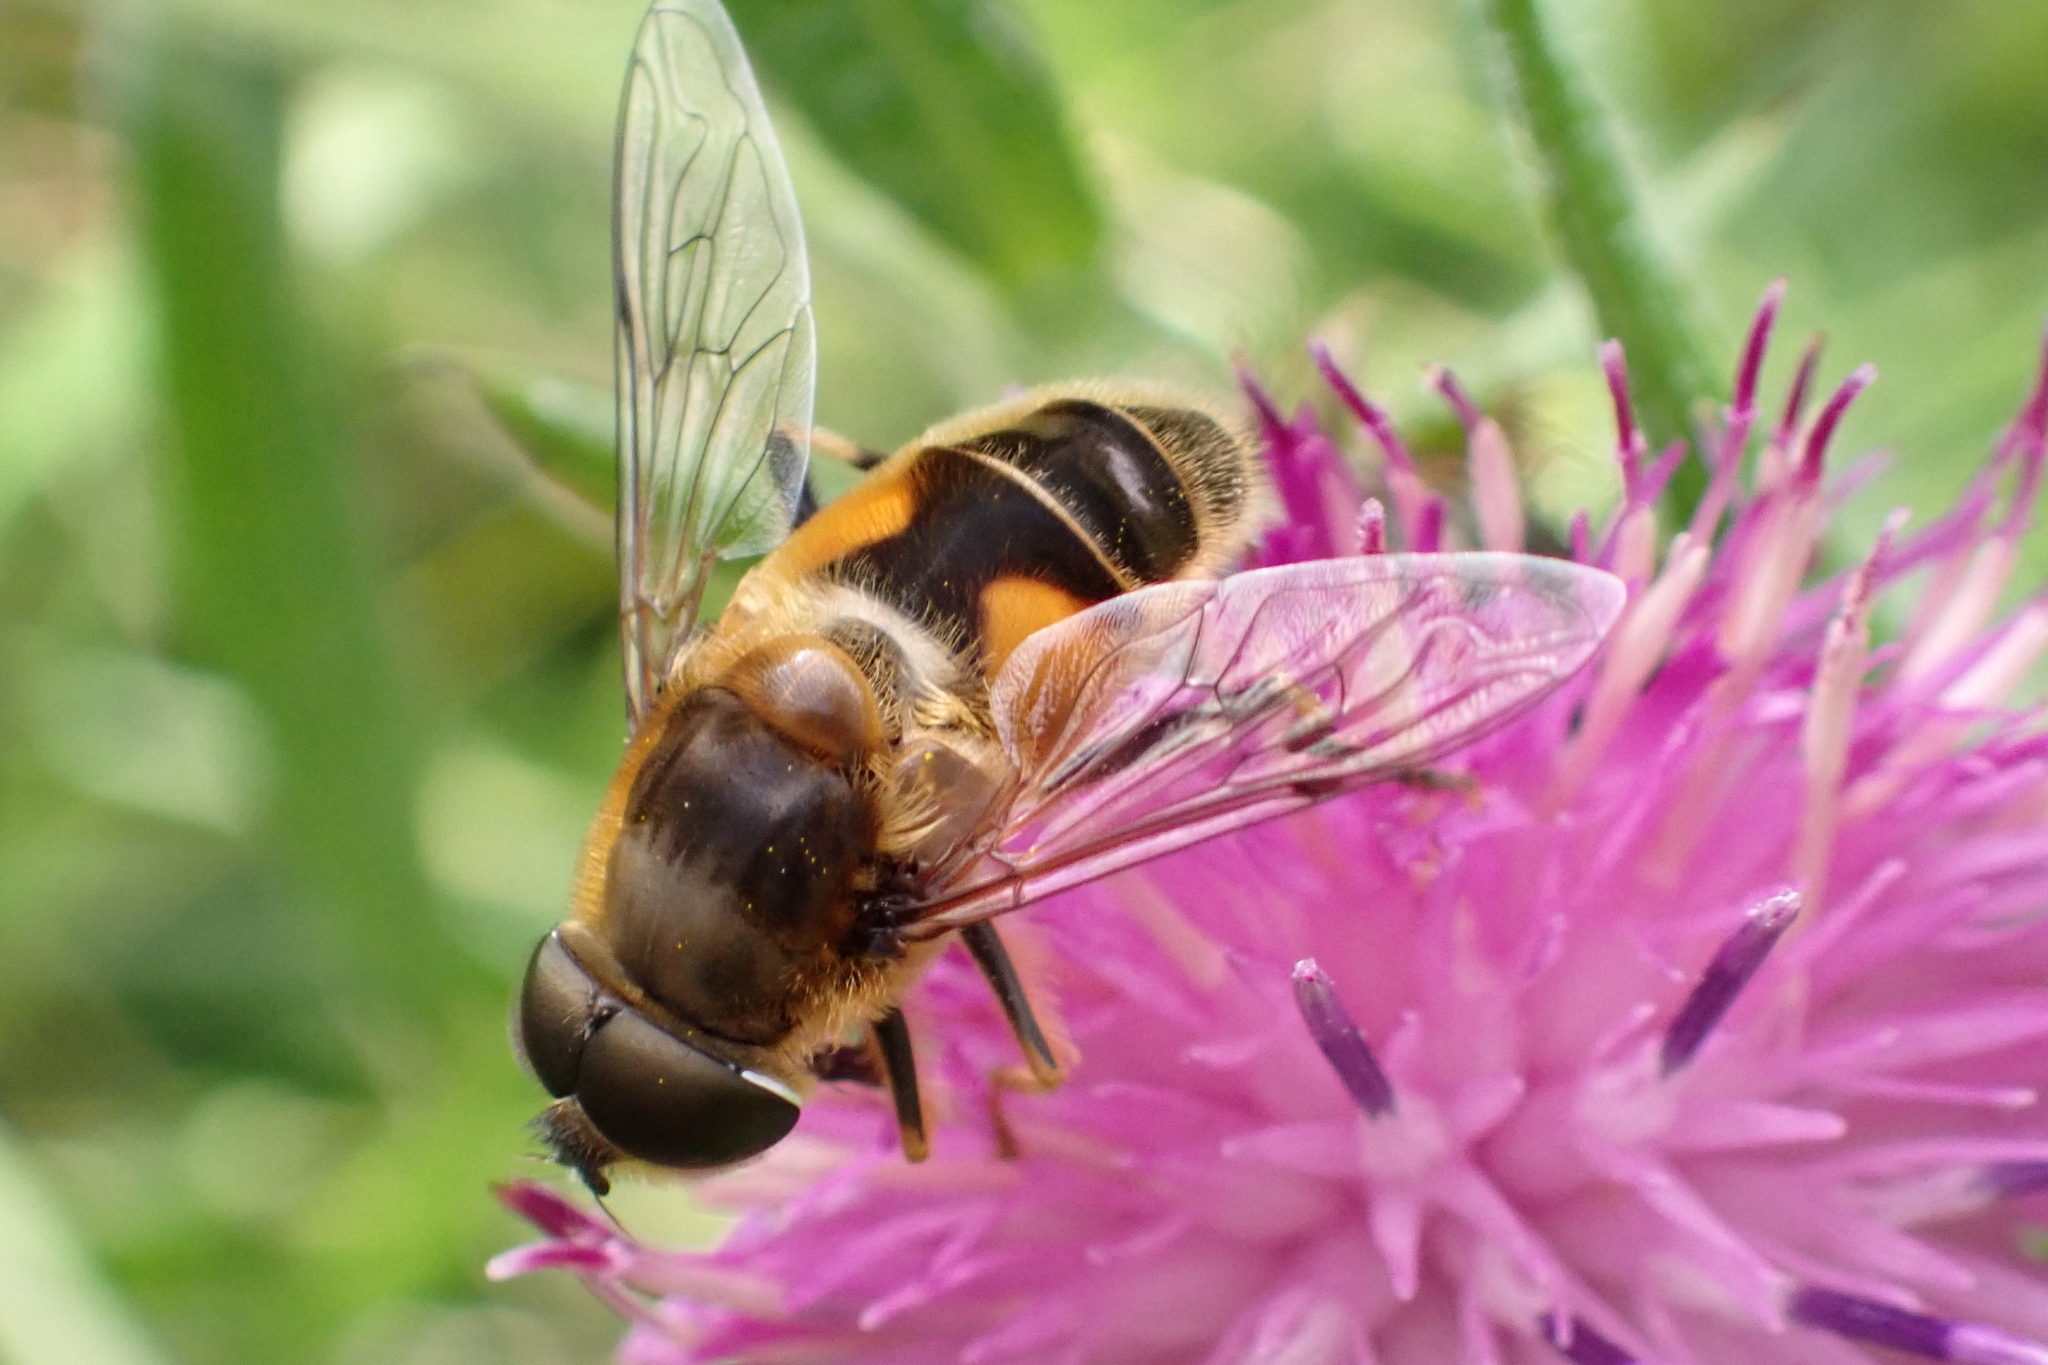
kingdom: Animalia
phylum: Arthropoda
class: Insecta
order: Diptera
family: Syrphidae
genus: Eristalis
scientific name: Eristalis pertinax
